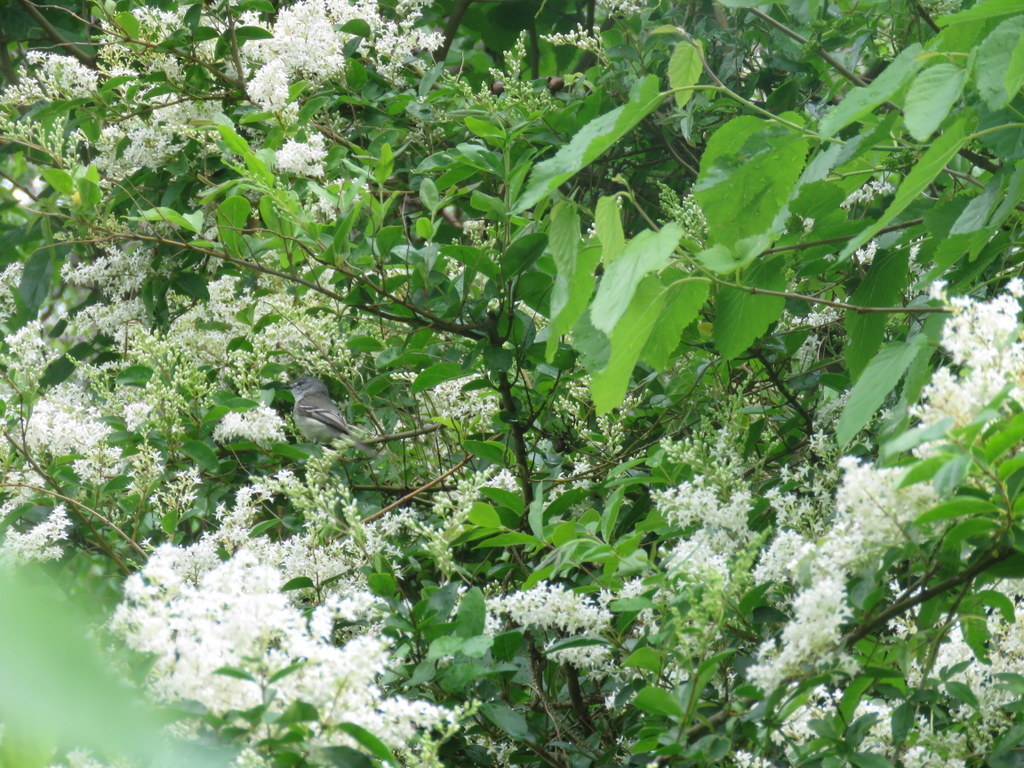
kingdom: Plantae
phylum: Tracheophyta
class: Magnoliopsida
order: Lamiales
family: Oleaceae
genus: Ligustrum
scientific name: Ligustrum sinense
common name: Chinese privet
